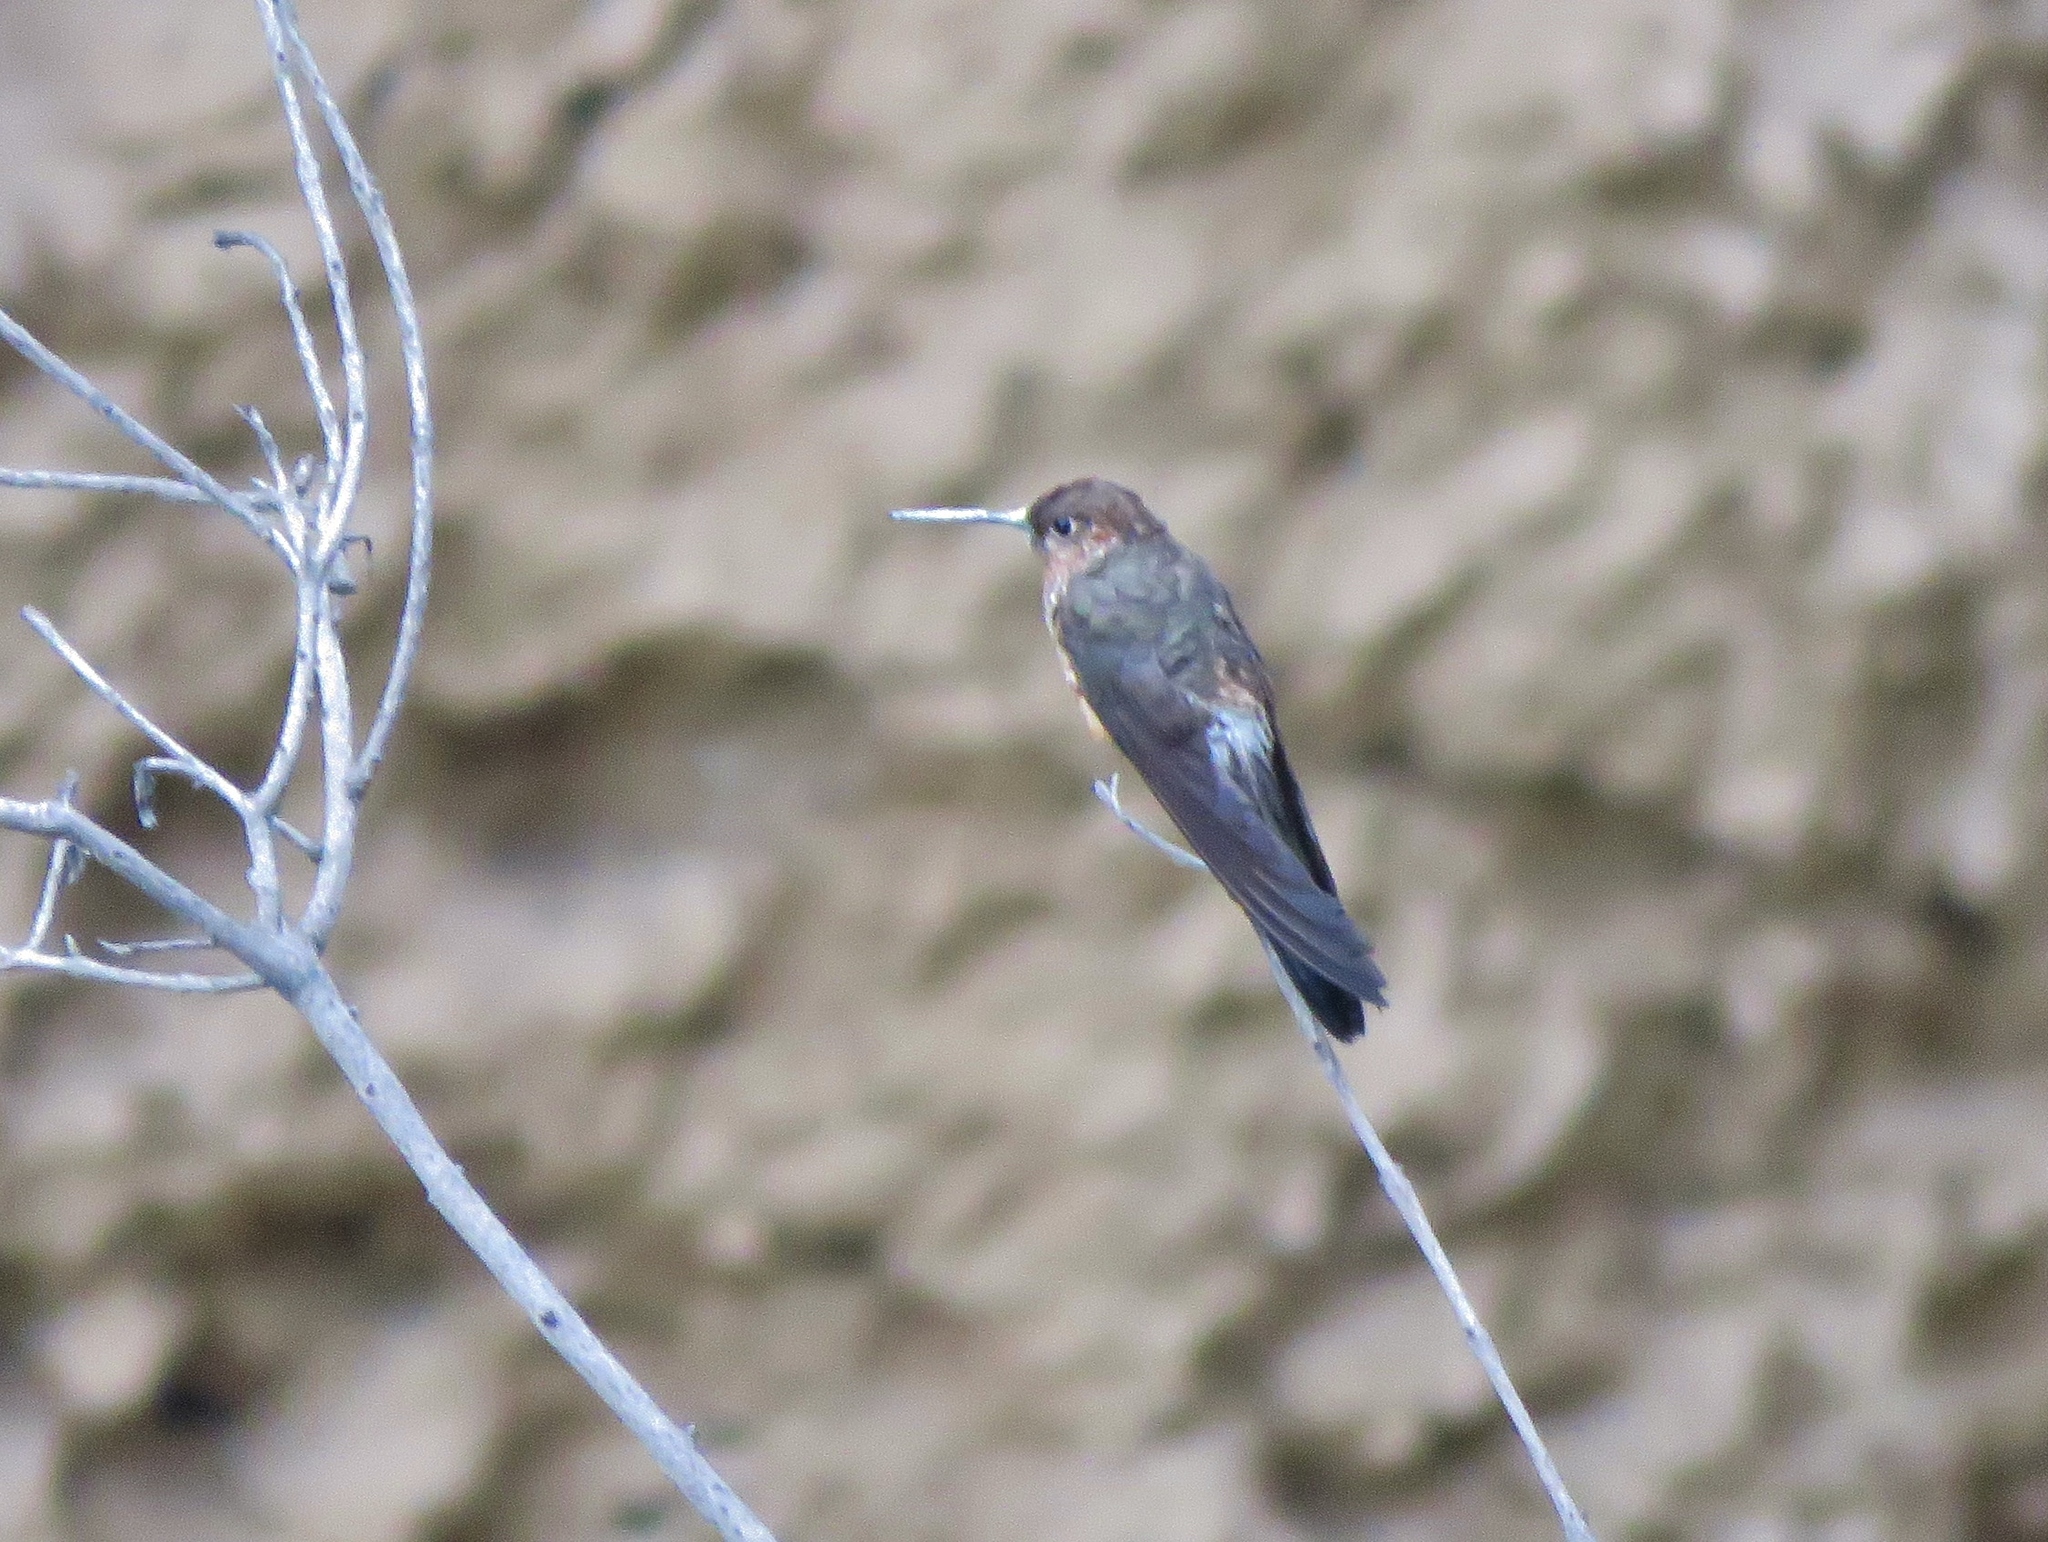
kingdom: Animalia
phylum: Chordata
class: Aves
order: Apodiformes
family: Trochilidae
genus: Patagona
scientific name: Patagona gigas
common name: Giant hummingbird
